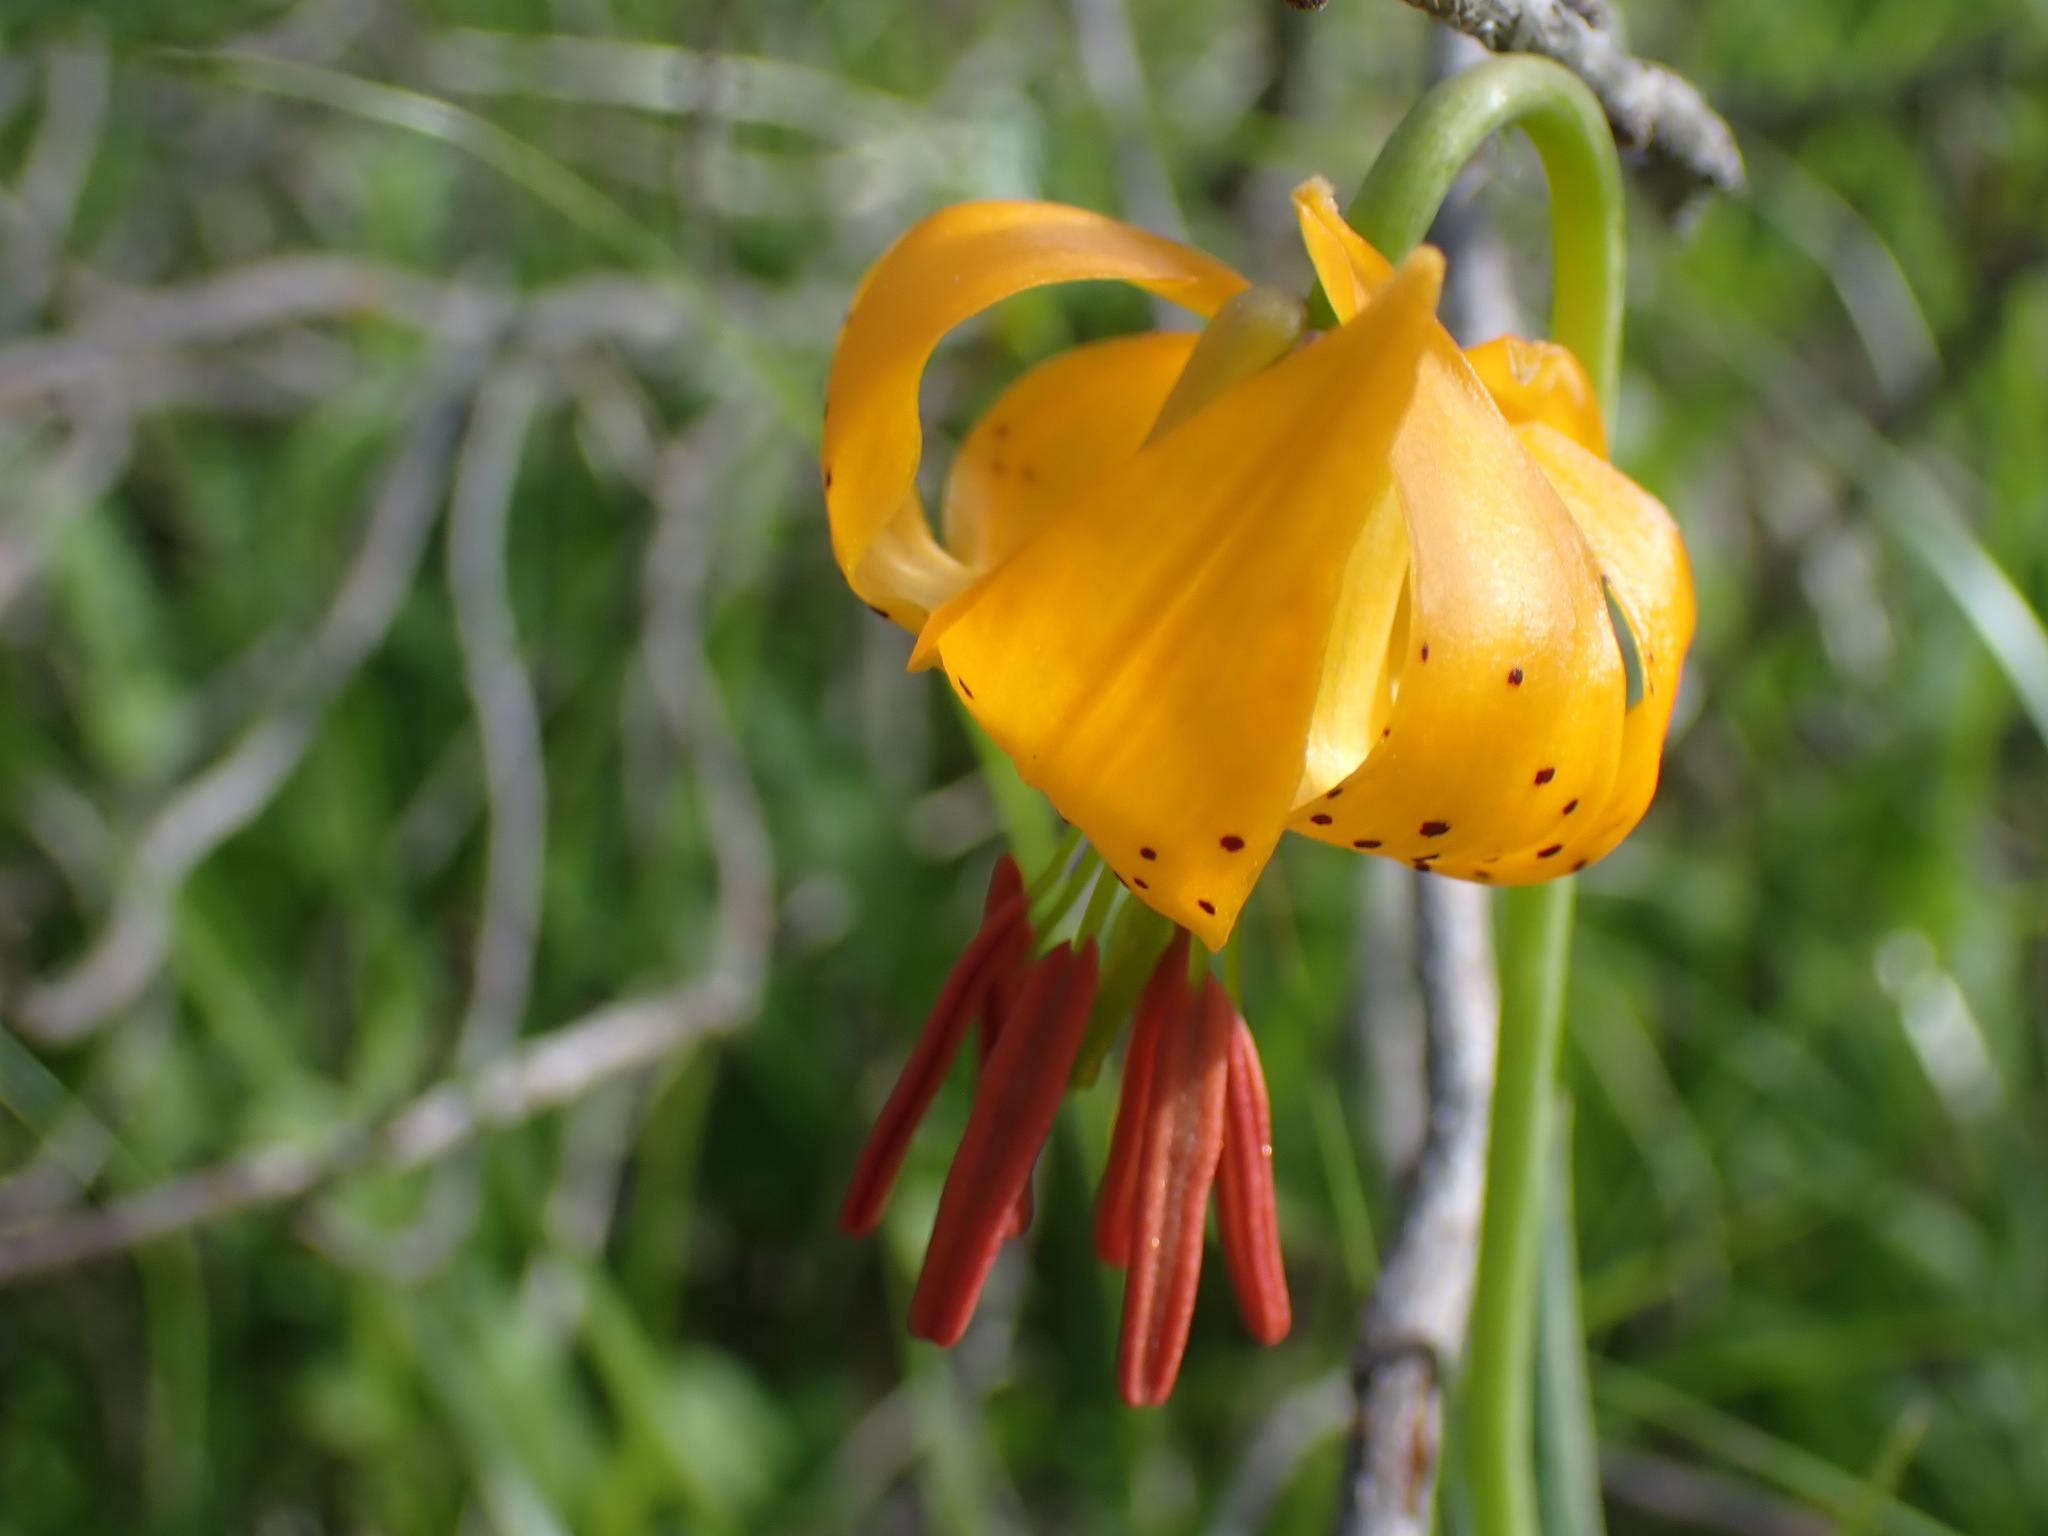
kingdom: Plantae
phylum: Tracheophyta
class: Liliopsida
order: Liliales
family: Liliaceae
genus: Lilium
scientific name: Lilium columbianum
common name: Columbia lily
